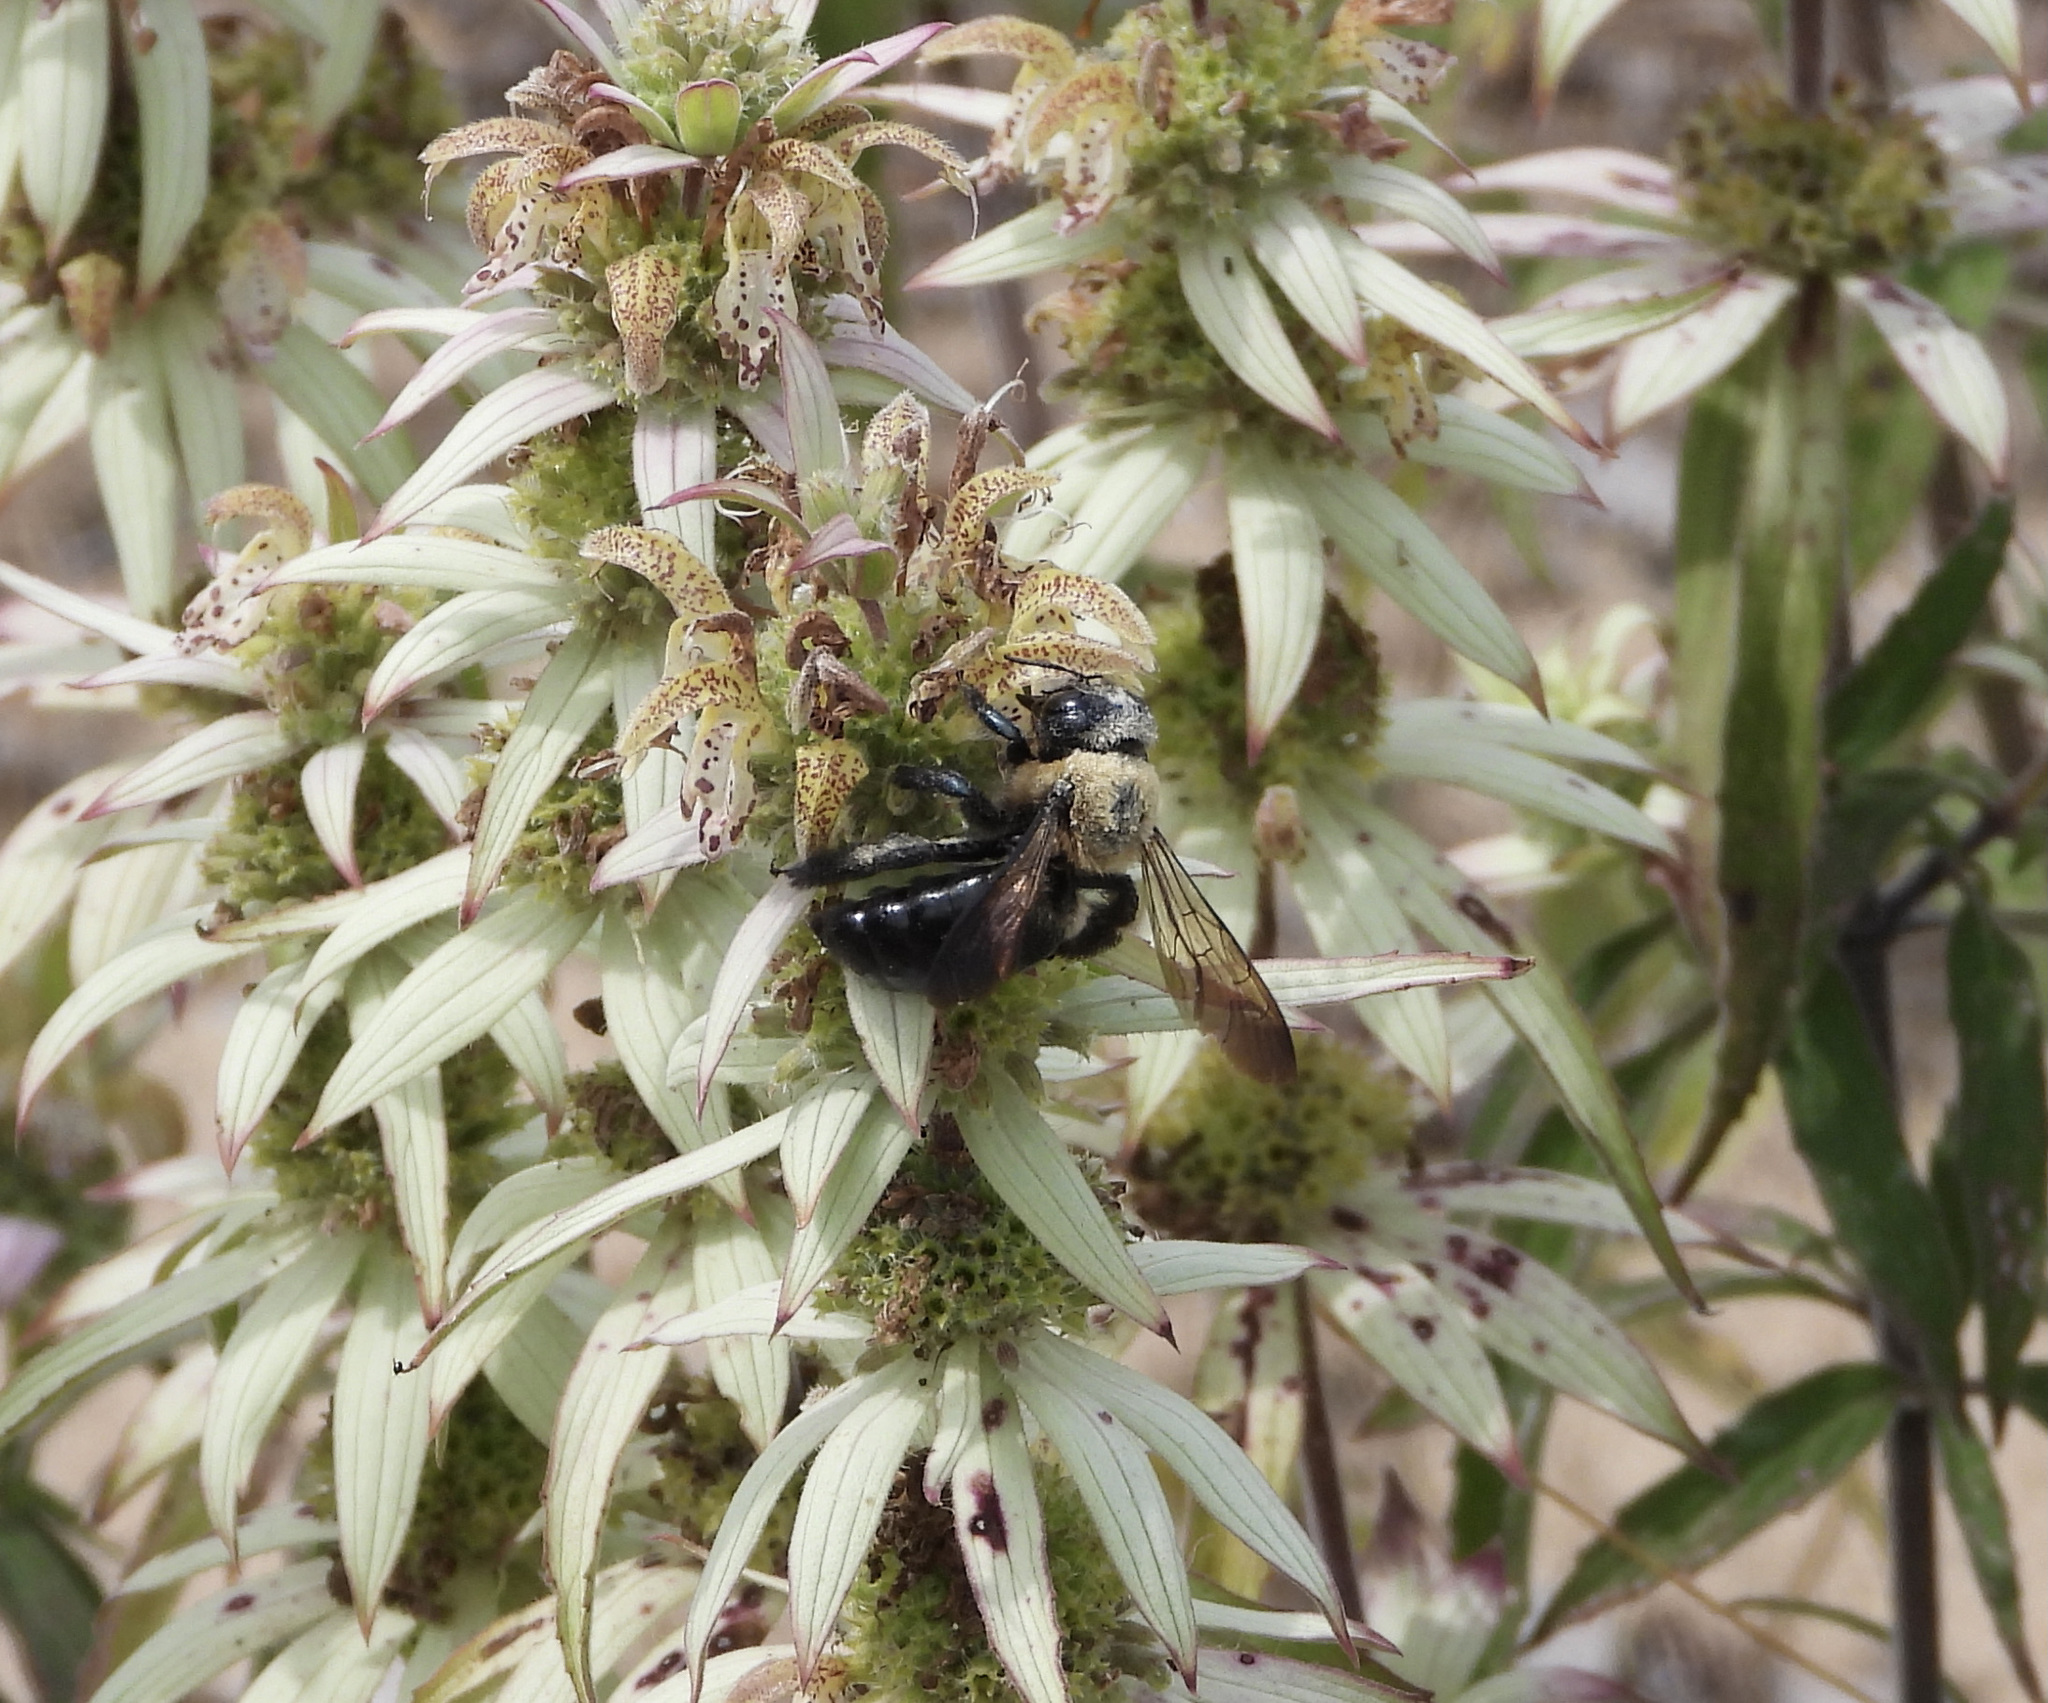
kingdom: Animalia
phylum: Arthropoda
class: Insecta
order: Hymenoptera
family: Apidae
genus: Xylocopa
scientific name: Xylocopa virginica
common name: Carpenter bee
